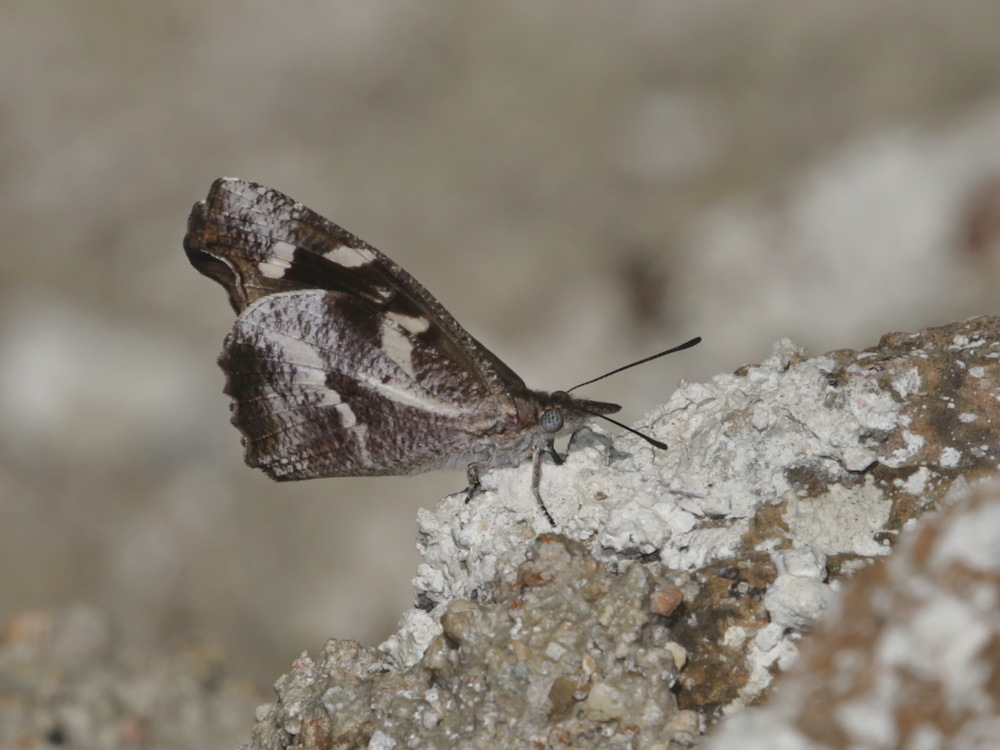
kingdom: Animalia
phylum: Arthropoda
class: Insecta
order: Lepidoptera
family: Nymphalidae
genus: Libythea
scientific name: Libythea narina
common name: Whitespotted beak
